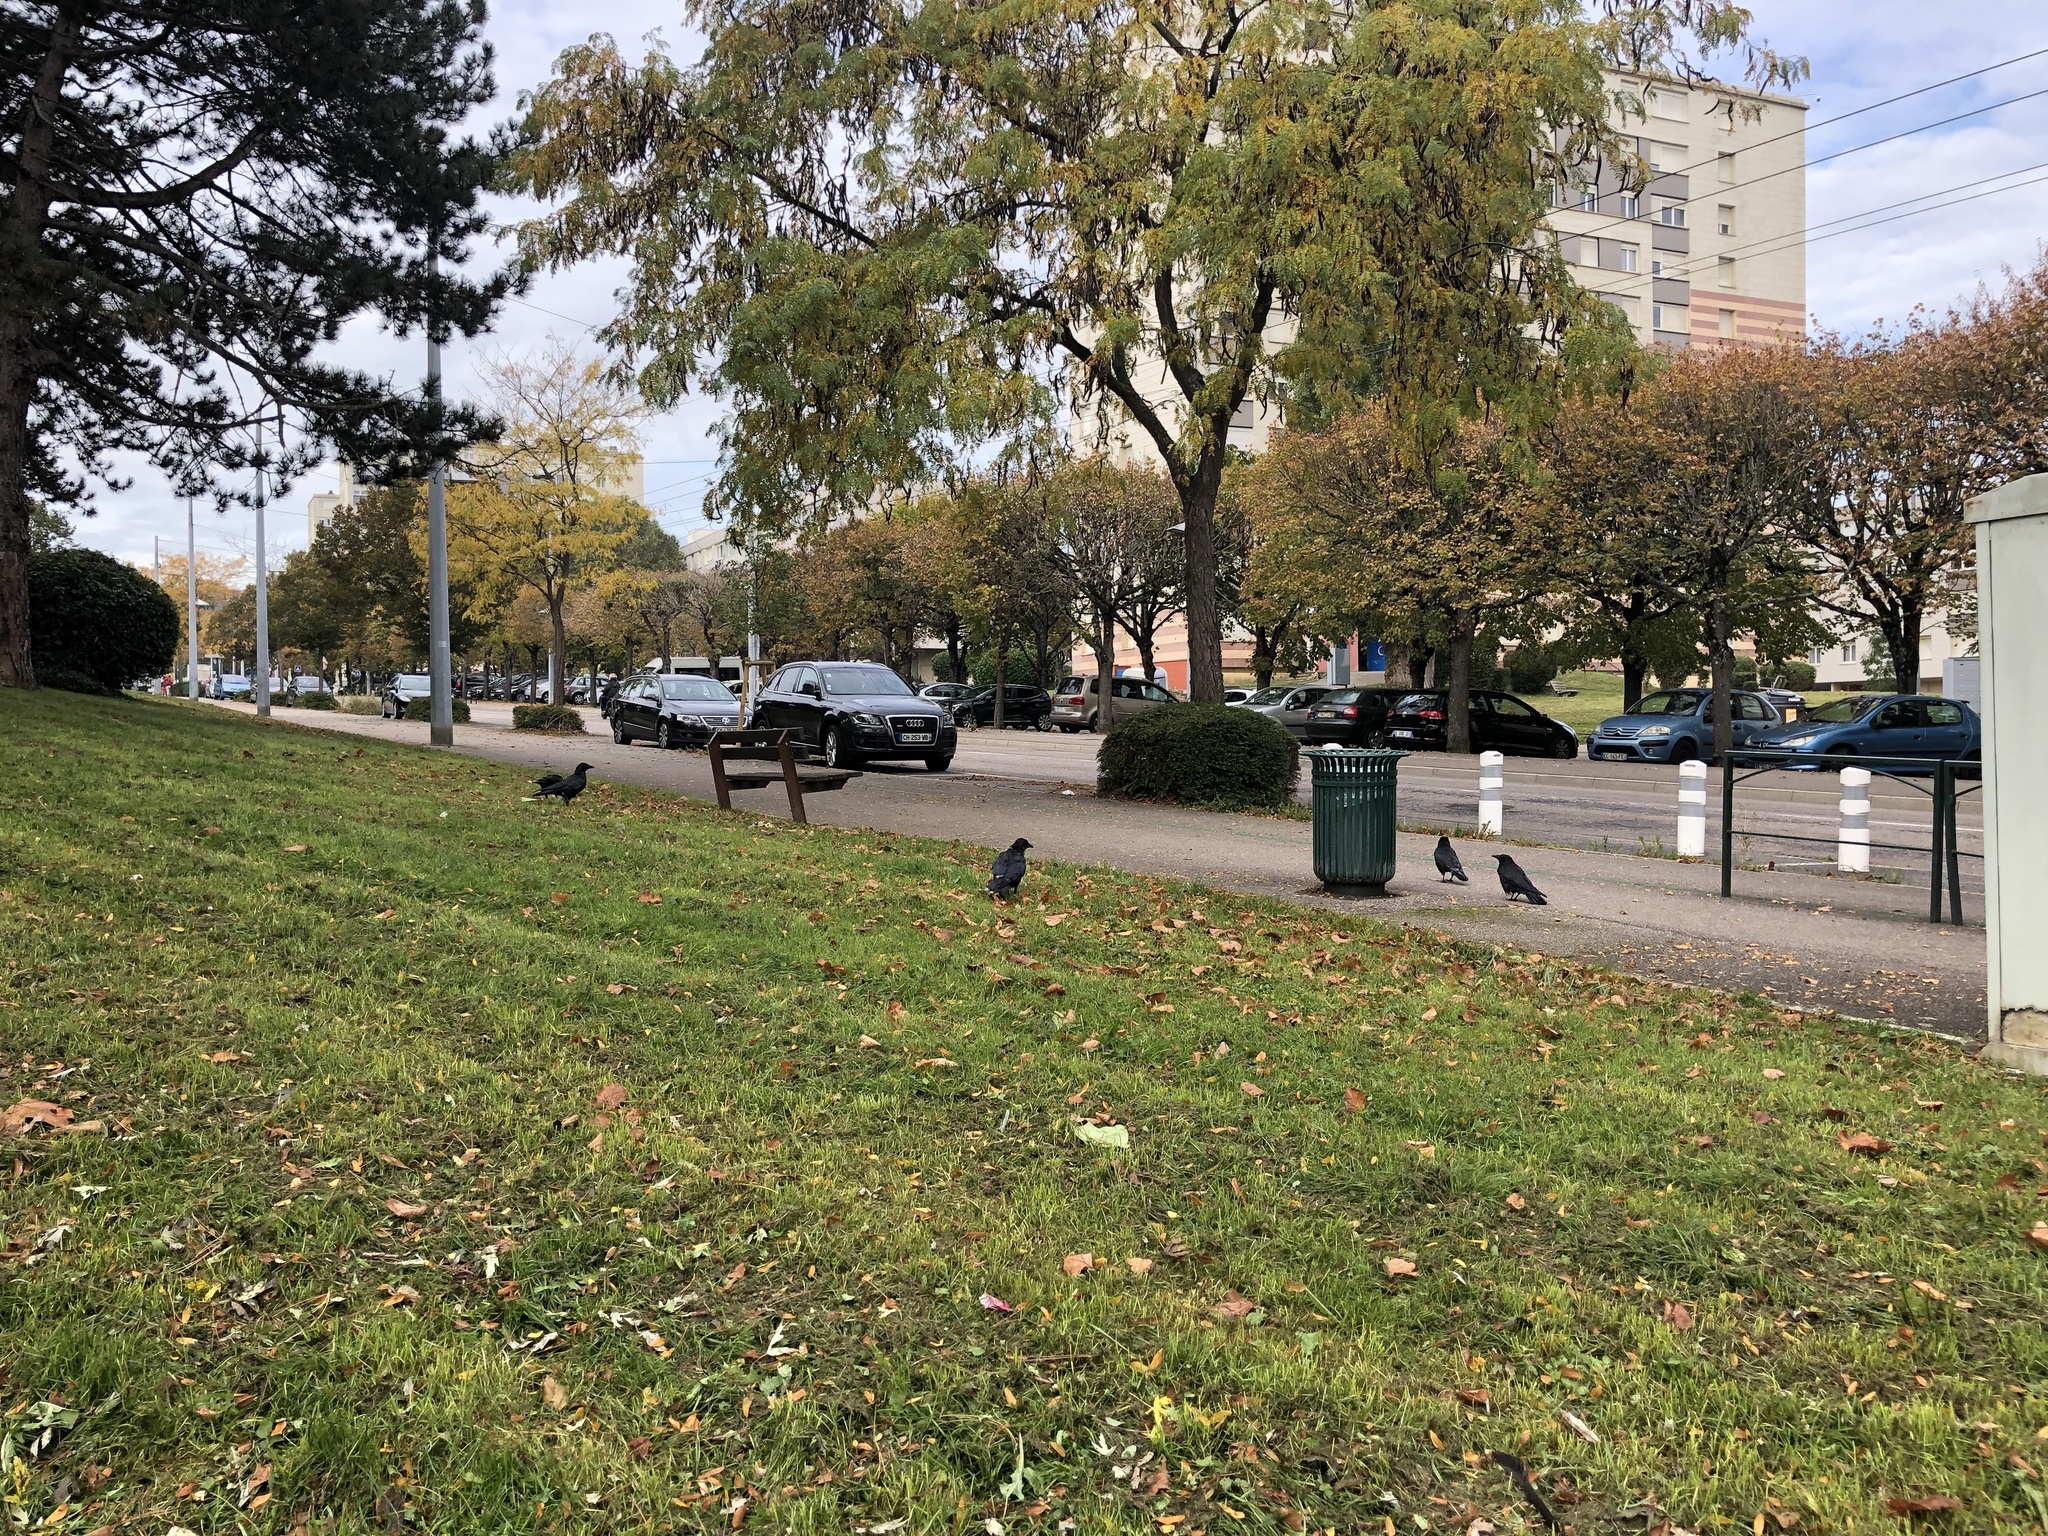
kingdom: Animalia
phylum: Chordata
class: Aves
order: Passeriformes
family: Corvidae
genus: Corvus
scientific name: Corvus corone
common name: Carrion crow
